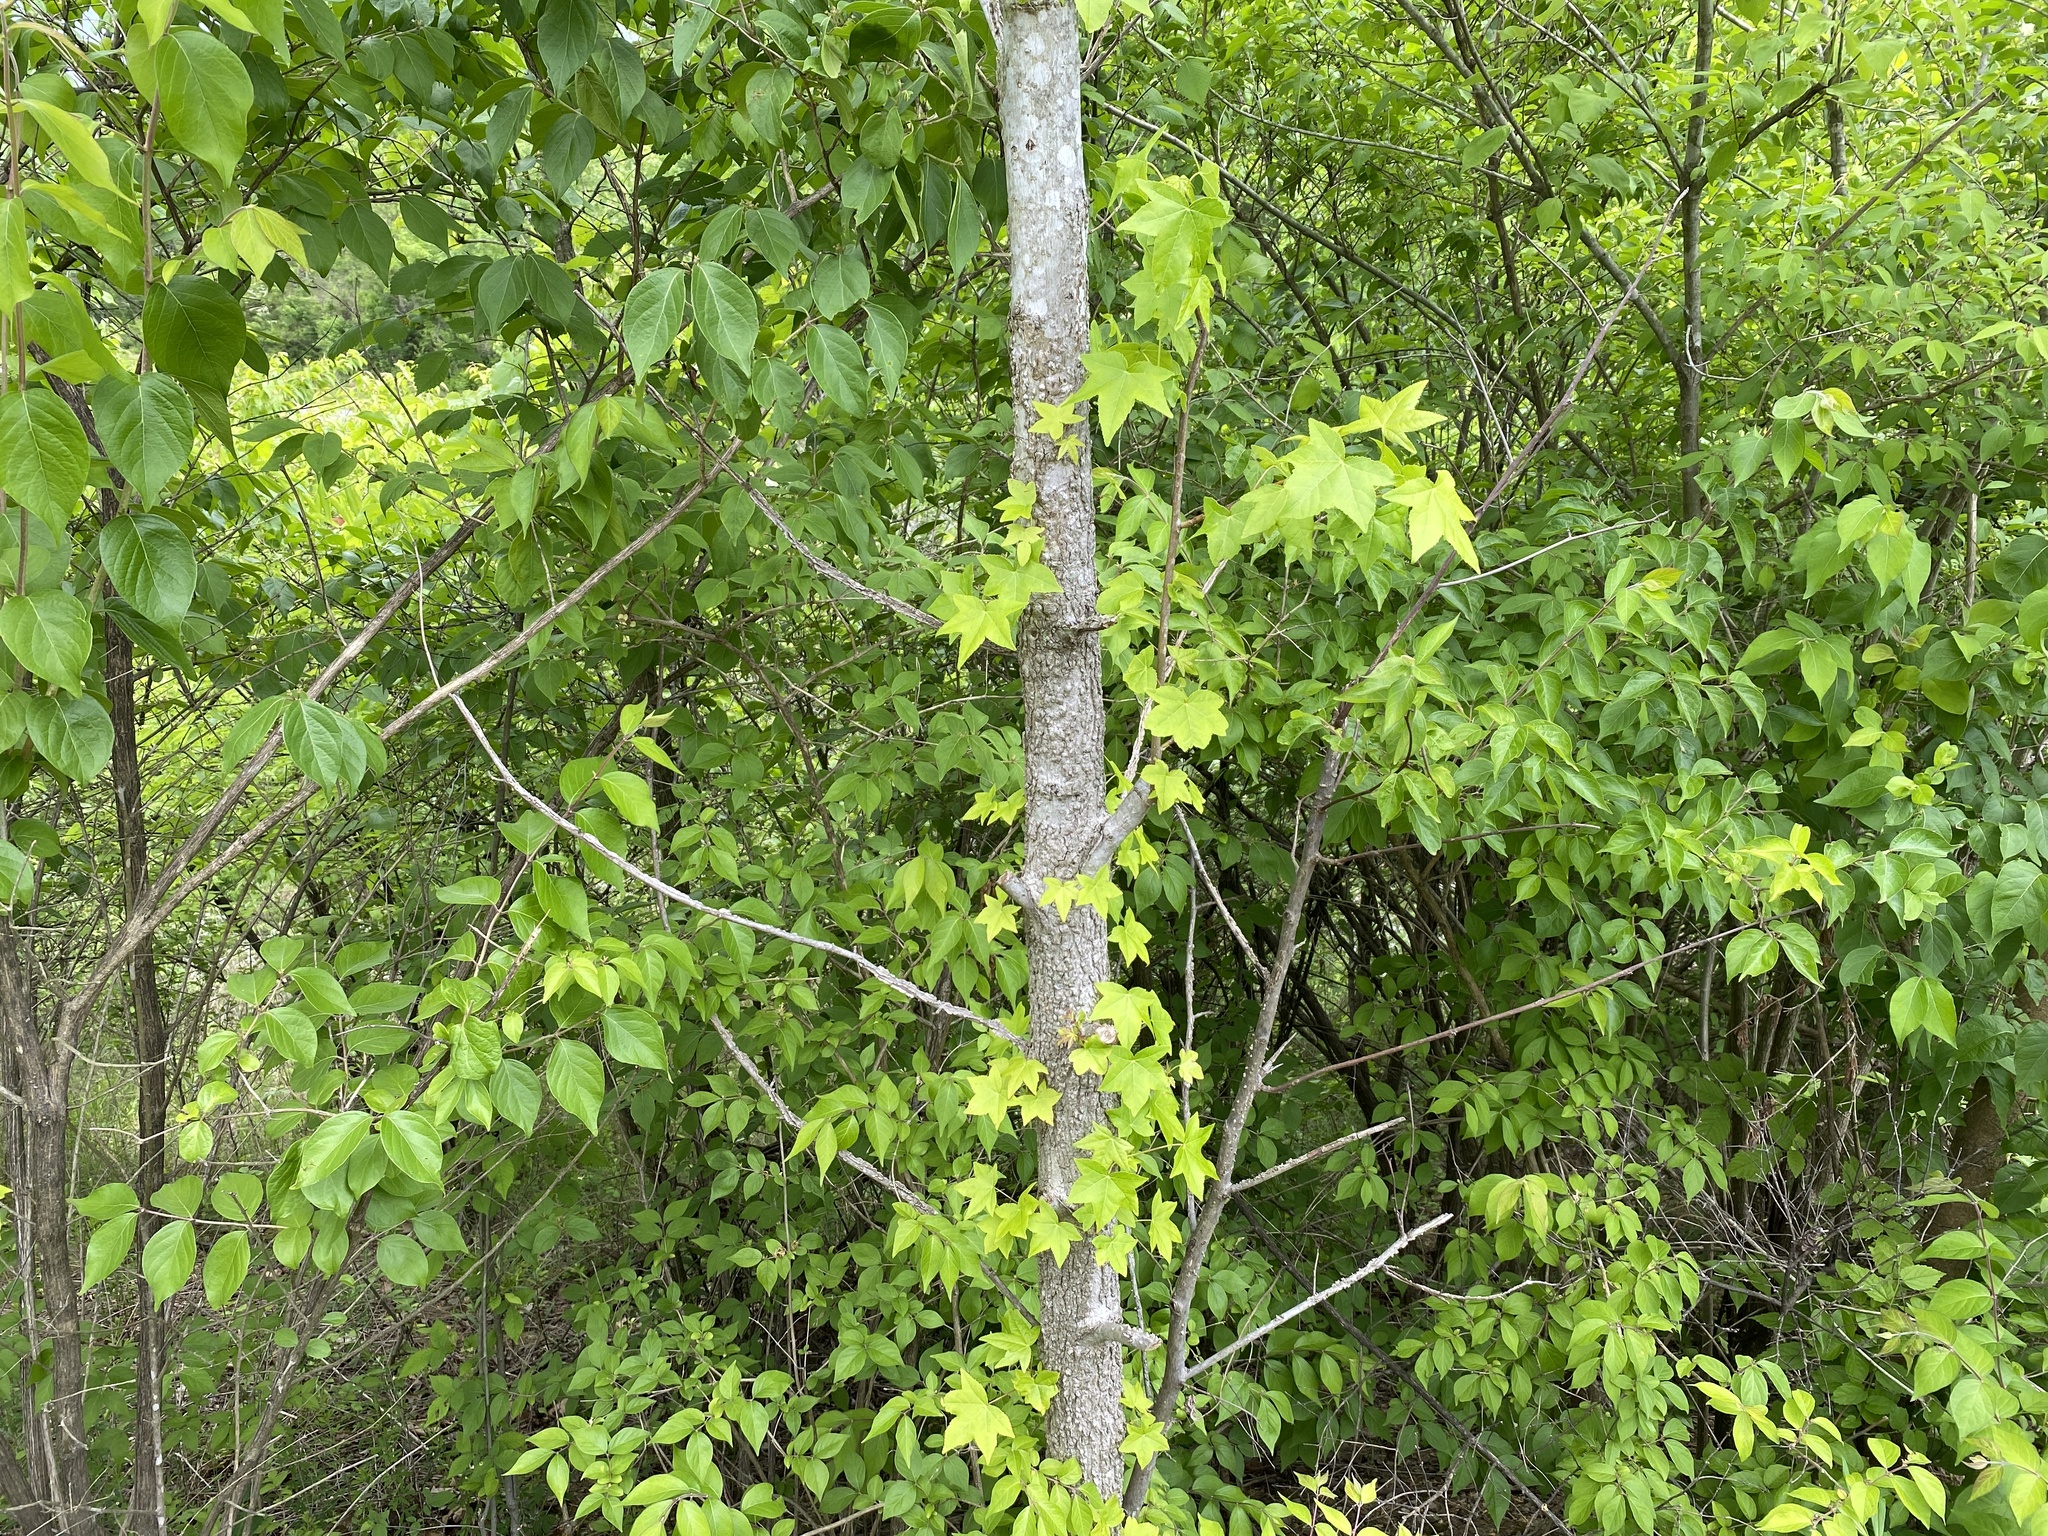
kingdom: Plantae
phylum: Tracheophyta
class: Magnoliopsida
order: Saxifragales
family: Altingiaceae
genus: Liquidambar
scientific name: Liquidambar styraciflua
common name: Sweet gum
